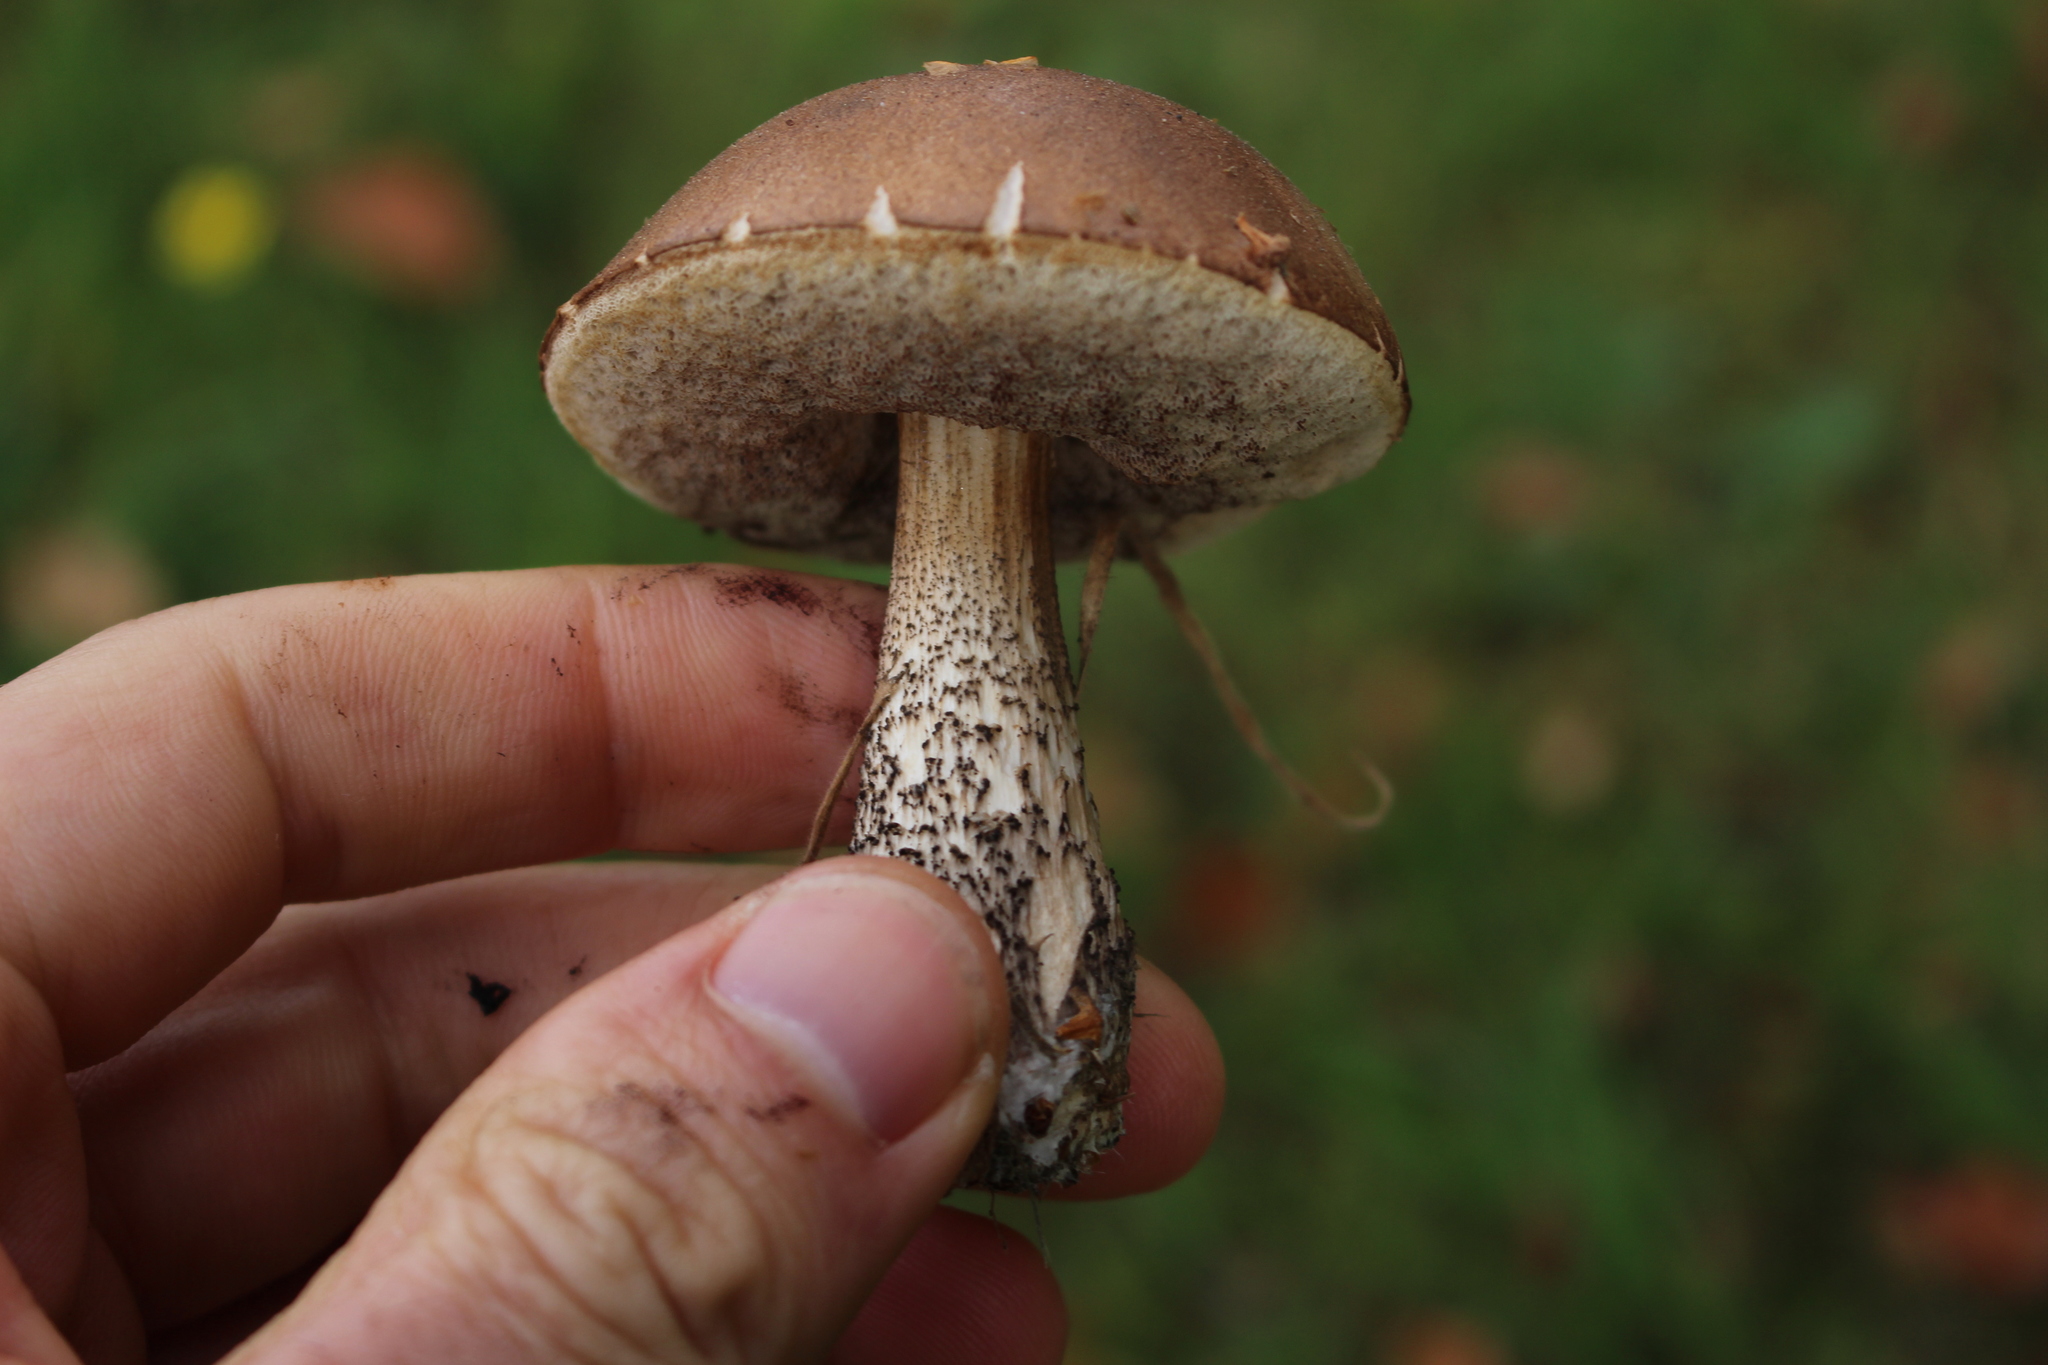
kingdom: Fungi
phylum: Basidiomycota
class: Agaricomycetes
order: Boletales
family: Boletaceae
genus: Leccinum
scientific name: Leccinum scabrum
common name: Blushing bolete
